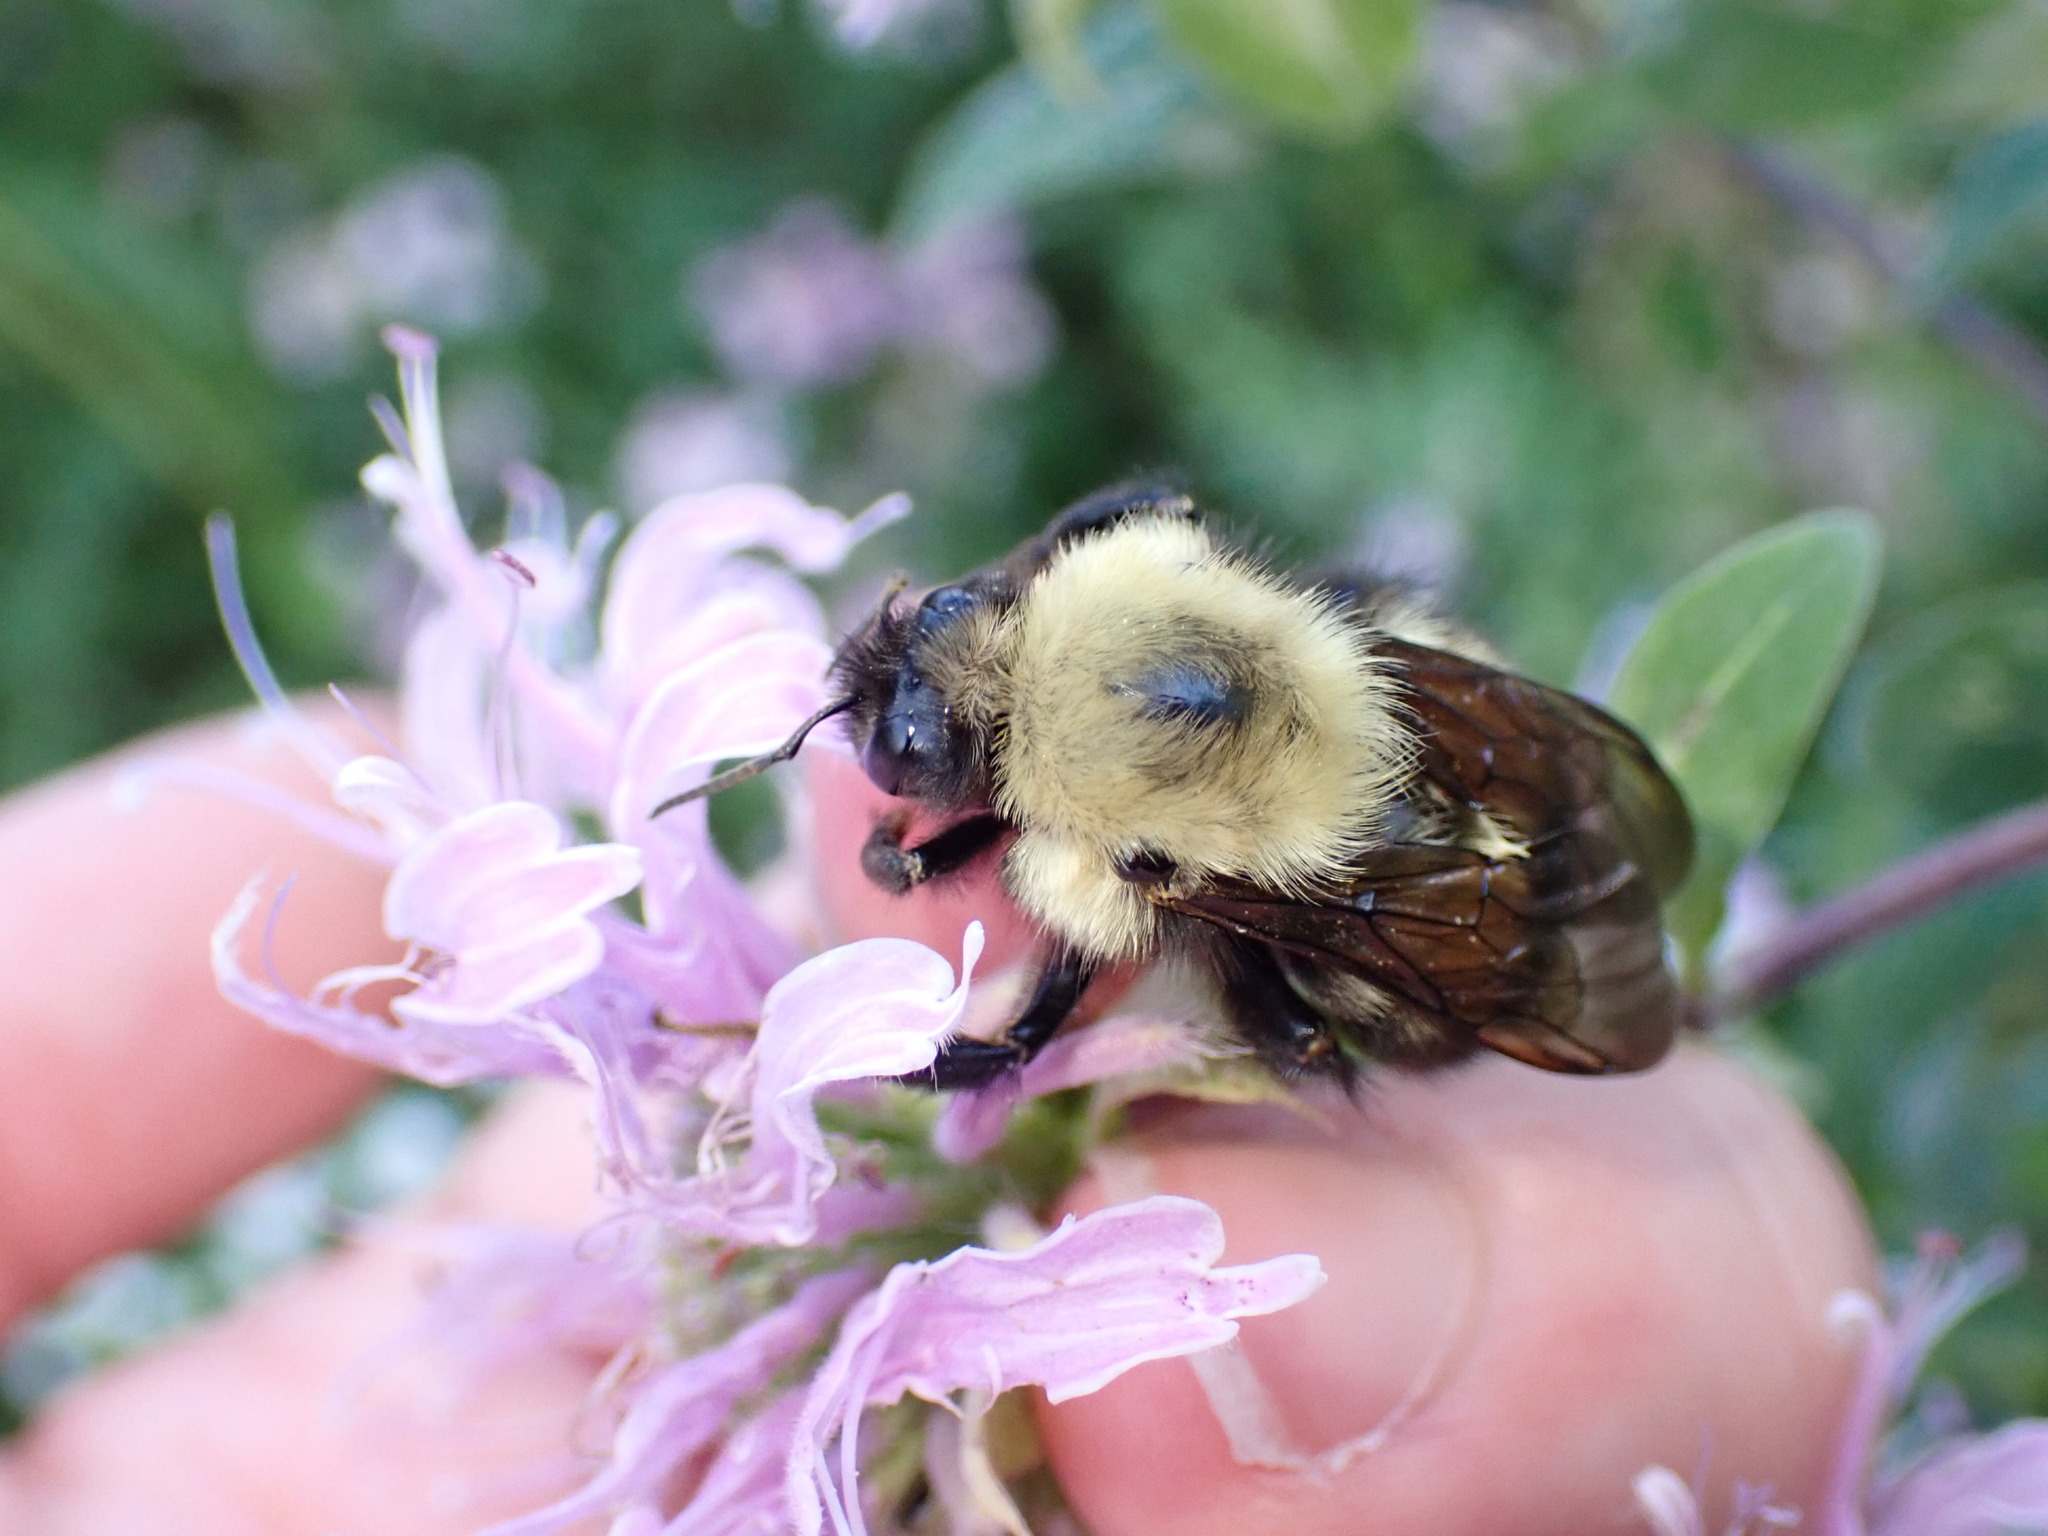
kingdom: Animalia
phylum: Arthropoda
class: Insecta
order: Hymenoptera
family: Apidae
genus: Bombus
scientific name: Bombus perplexus
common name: Confusing bumble bee
